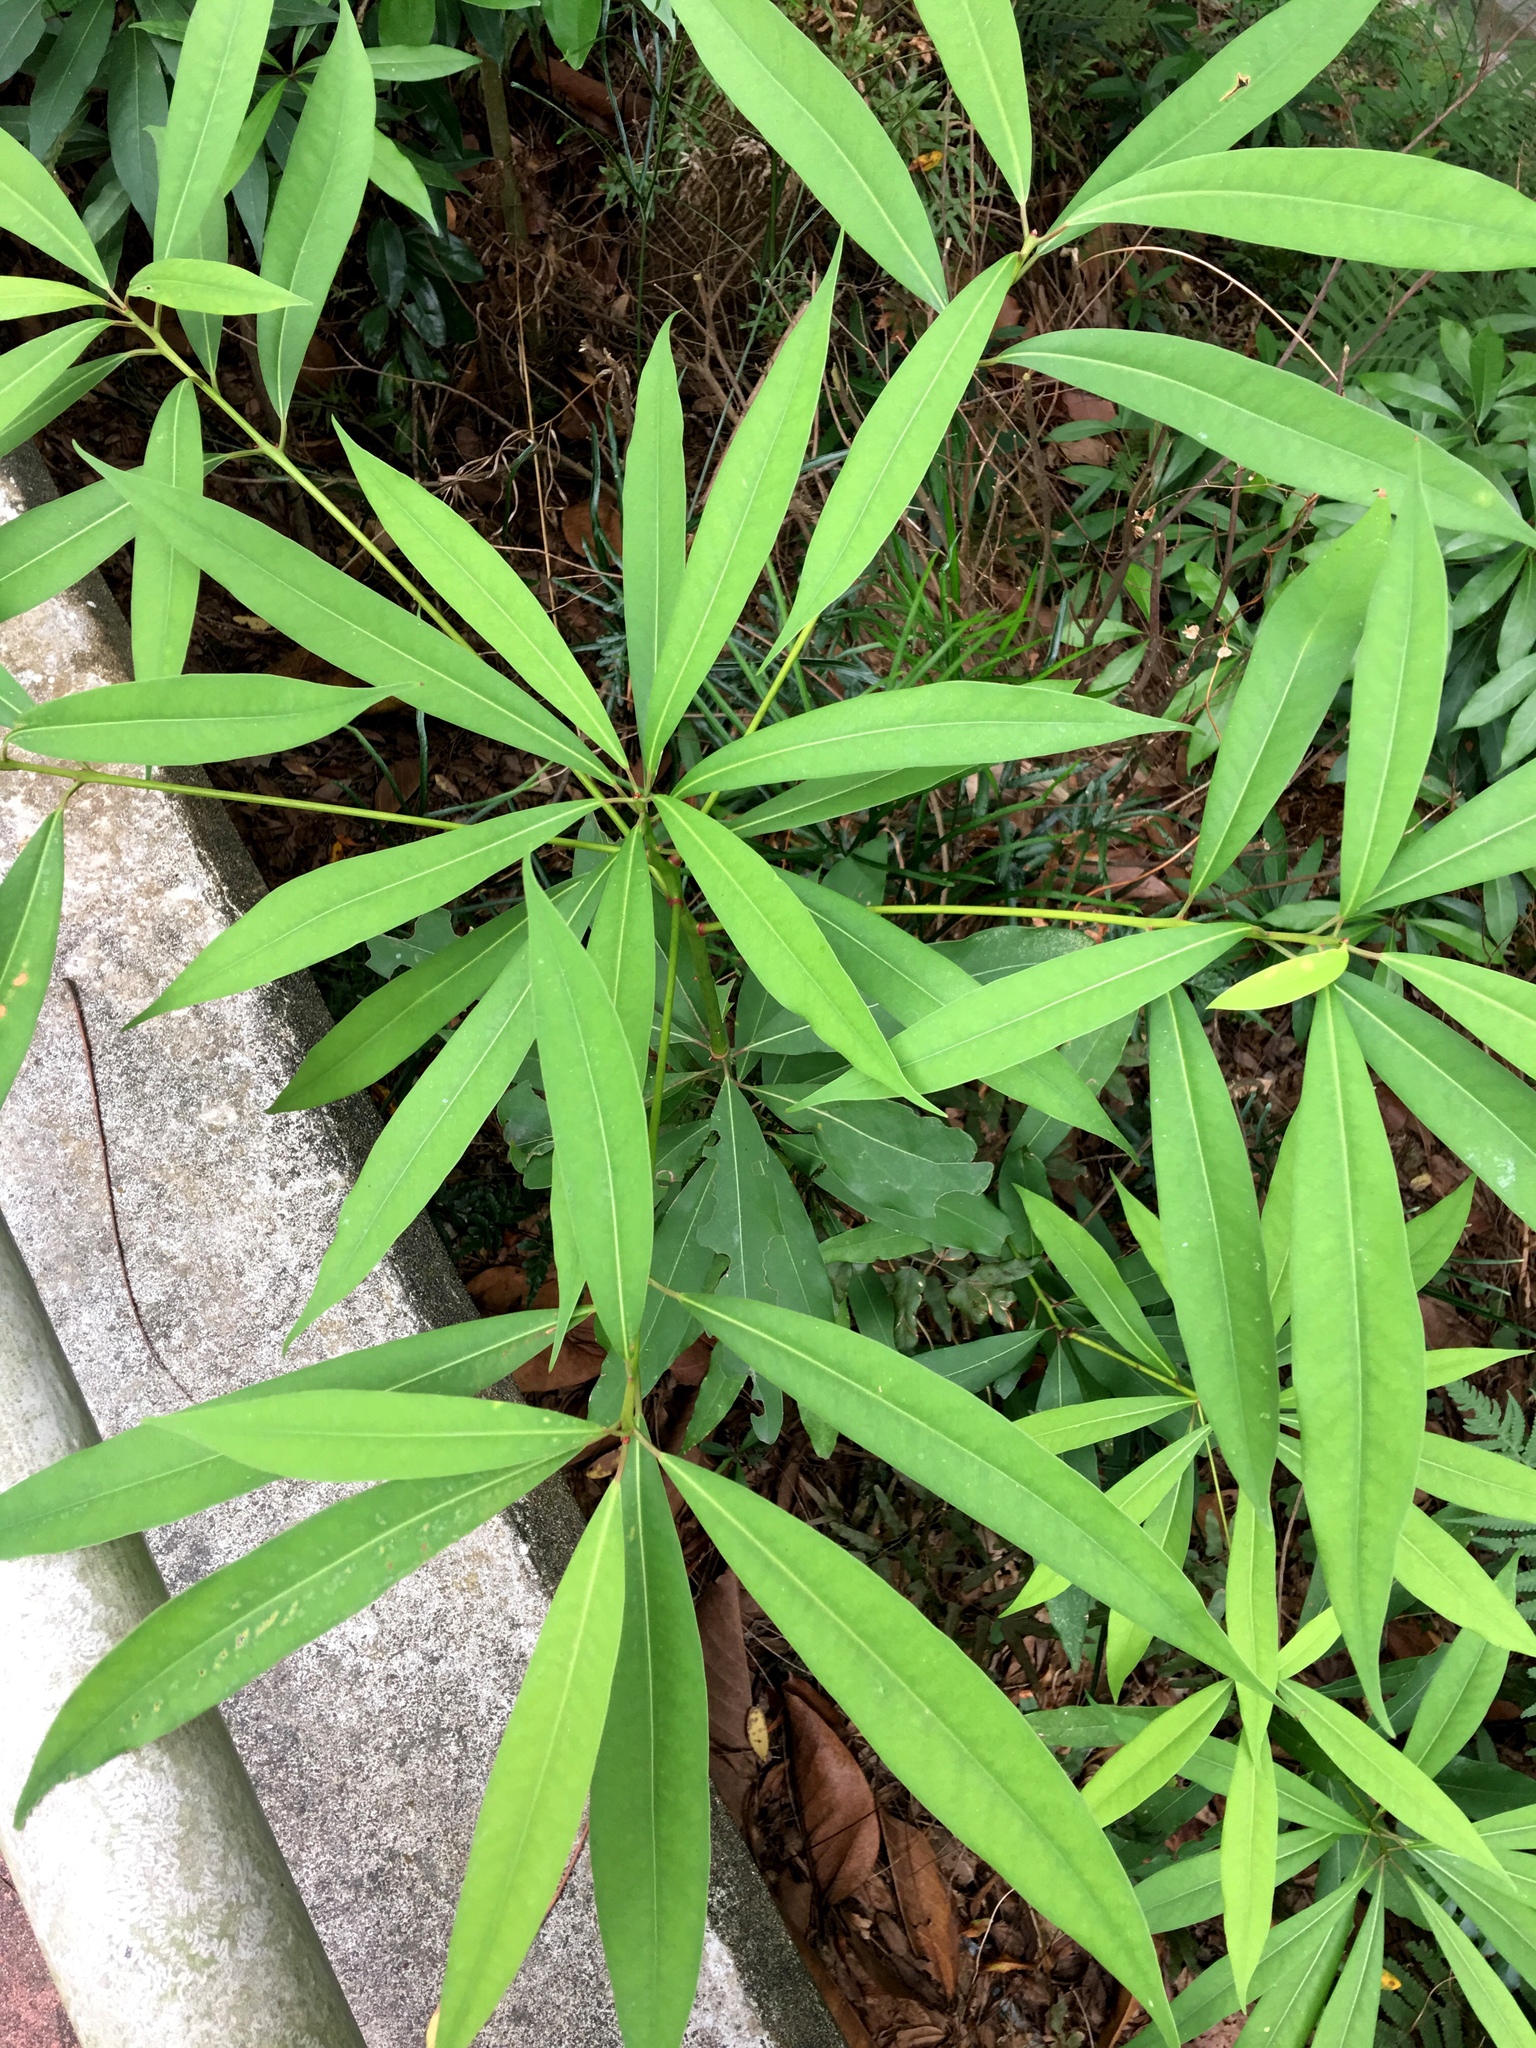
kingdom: Plantae
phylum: Tracheophyta
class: Magnoliopsida
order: Laurales
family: Lauraceae
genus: Machilus
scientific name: Machilus pauhoi
